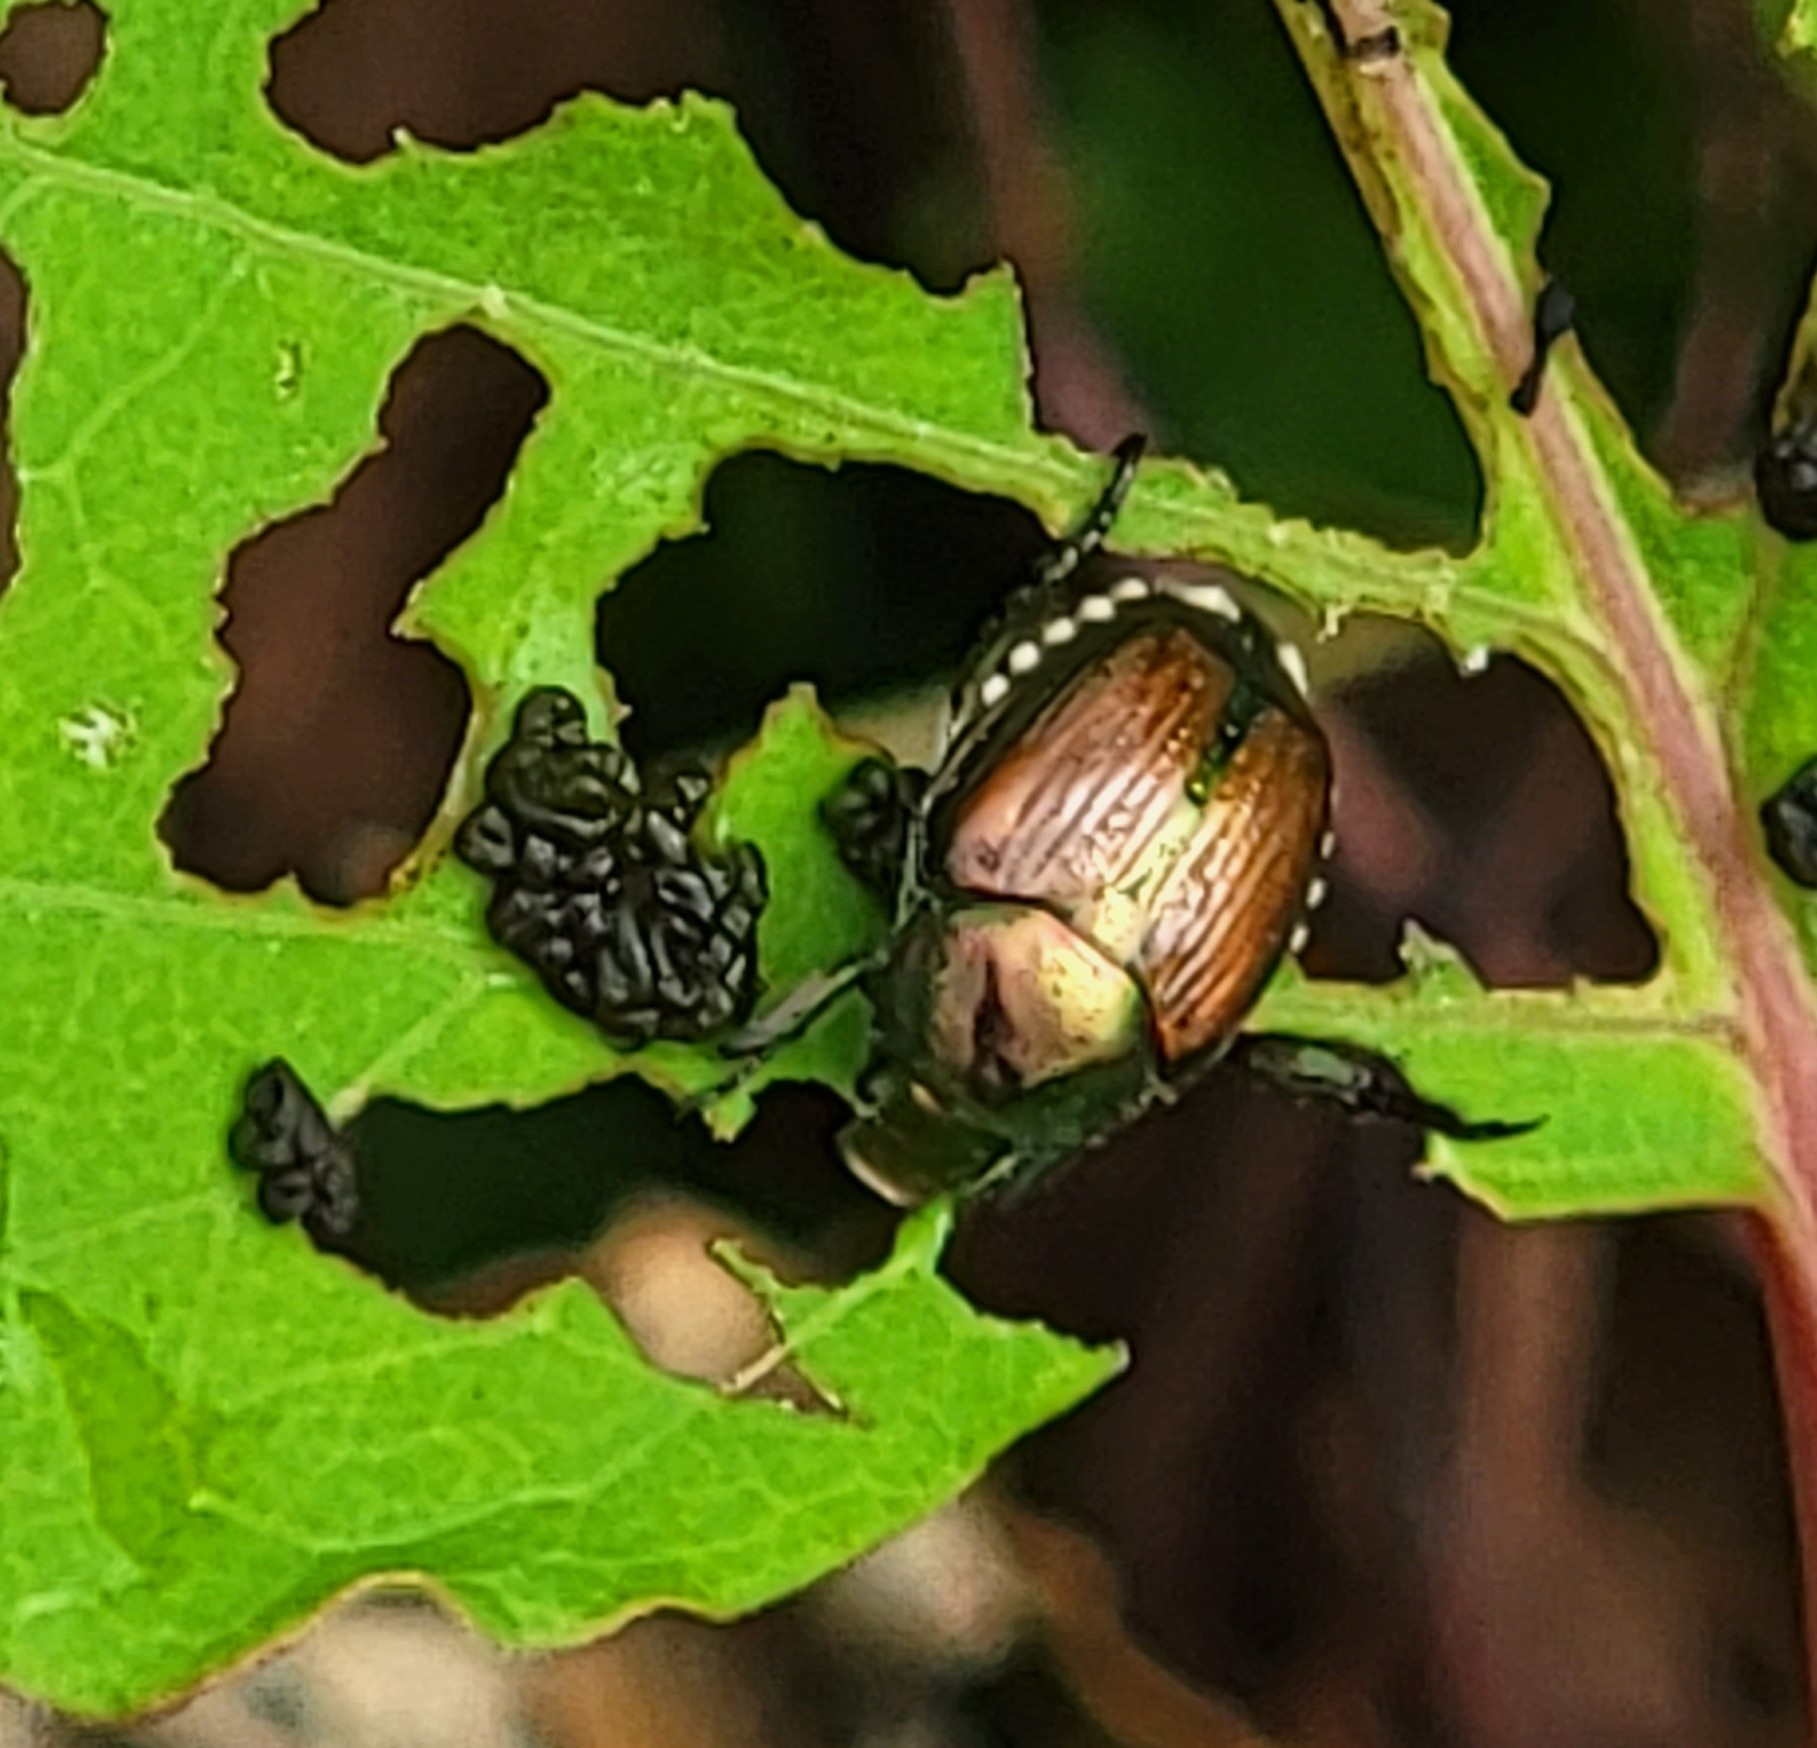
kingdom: Animalia
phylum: Arthropoda
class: Insecta
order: Coleoptera
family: Scarabaeidae
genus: Popillia
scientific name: Popillia japonica
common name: Japanese beetle
